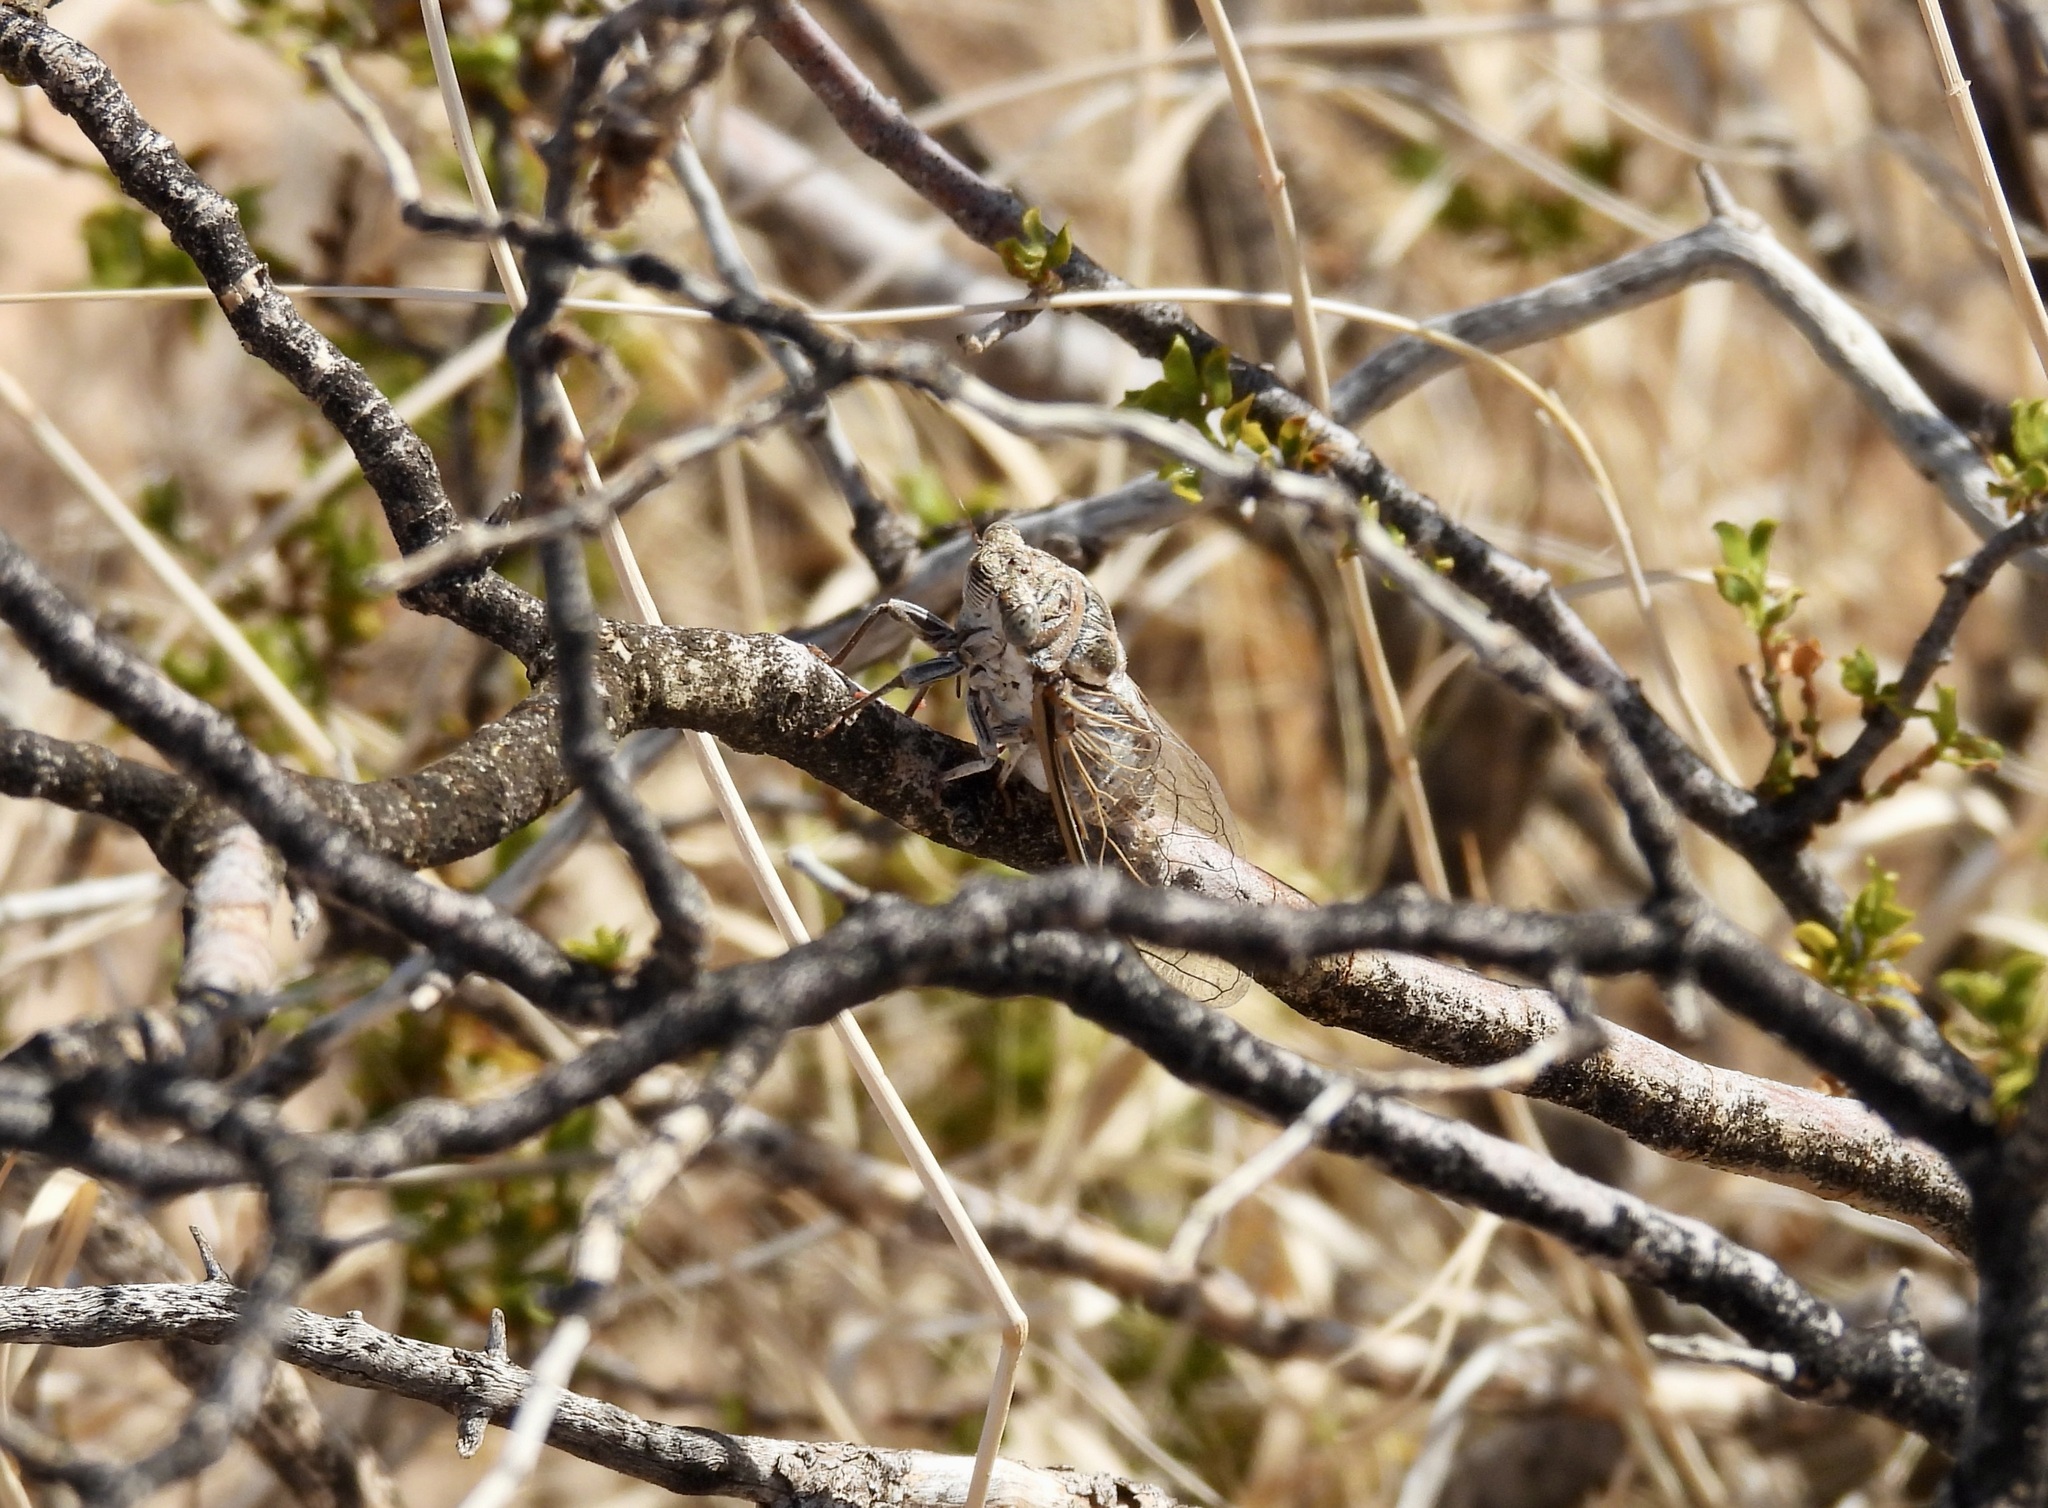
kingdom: Animalia
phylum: Arthropoda
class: Insecta
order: Hemiptera
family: Cicadidae
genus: Diceroprocta
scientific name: Diceroprocta eugraphica
